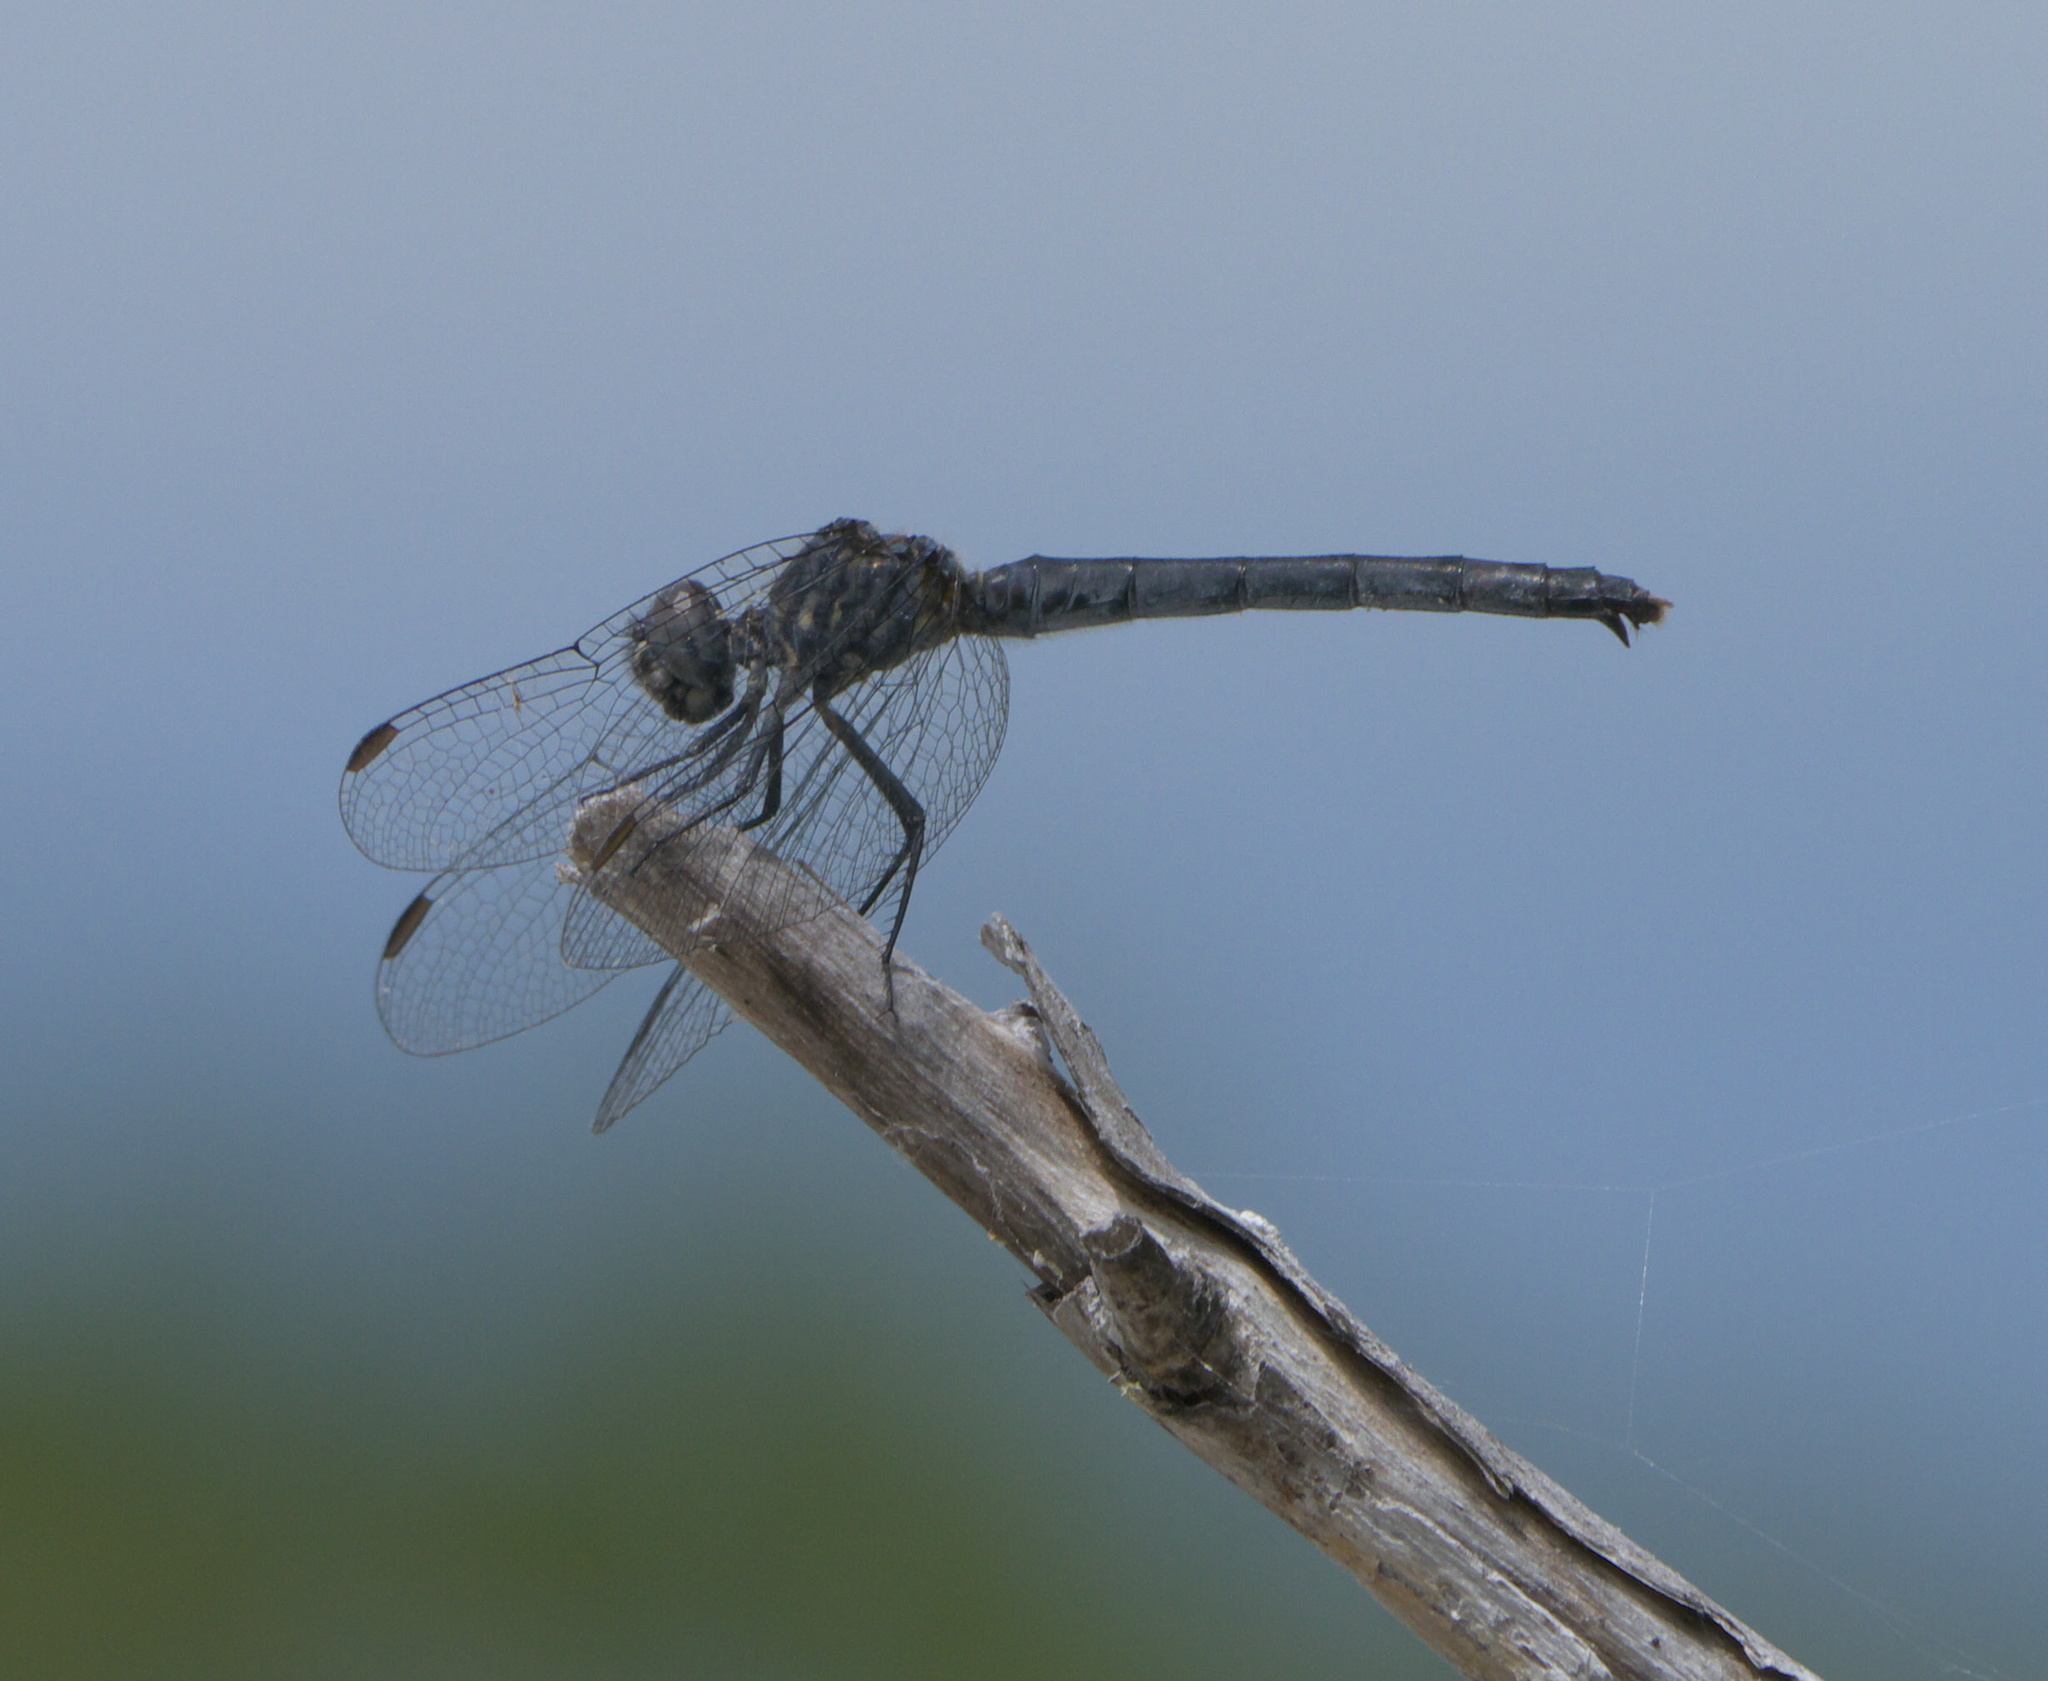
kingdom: Animalia
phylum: Arthropoda
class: Insecta
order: Odonata
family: Libellulidae
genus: Erythrodiplax
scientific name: Erythrodiplax berenice
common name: Seaside dragonlet
